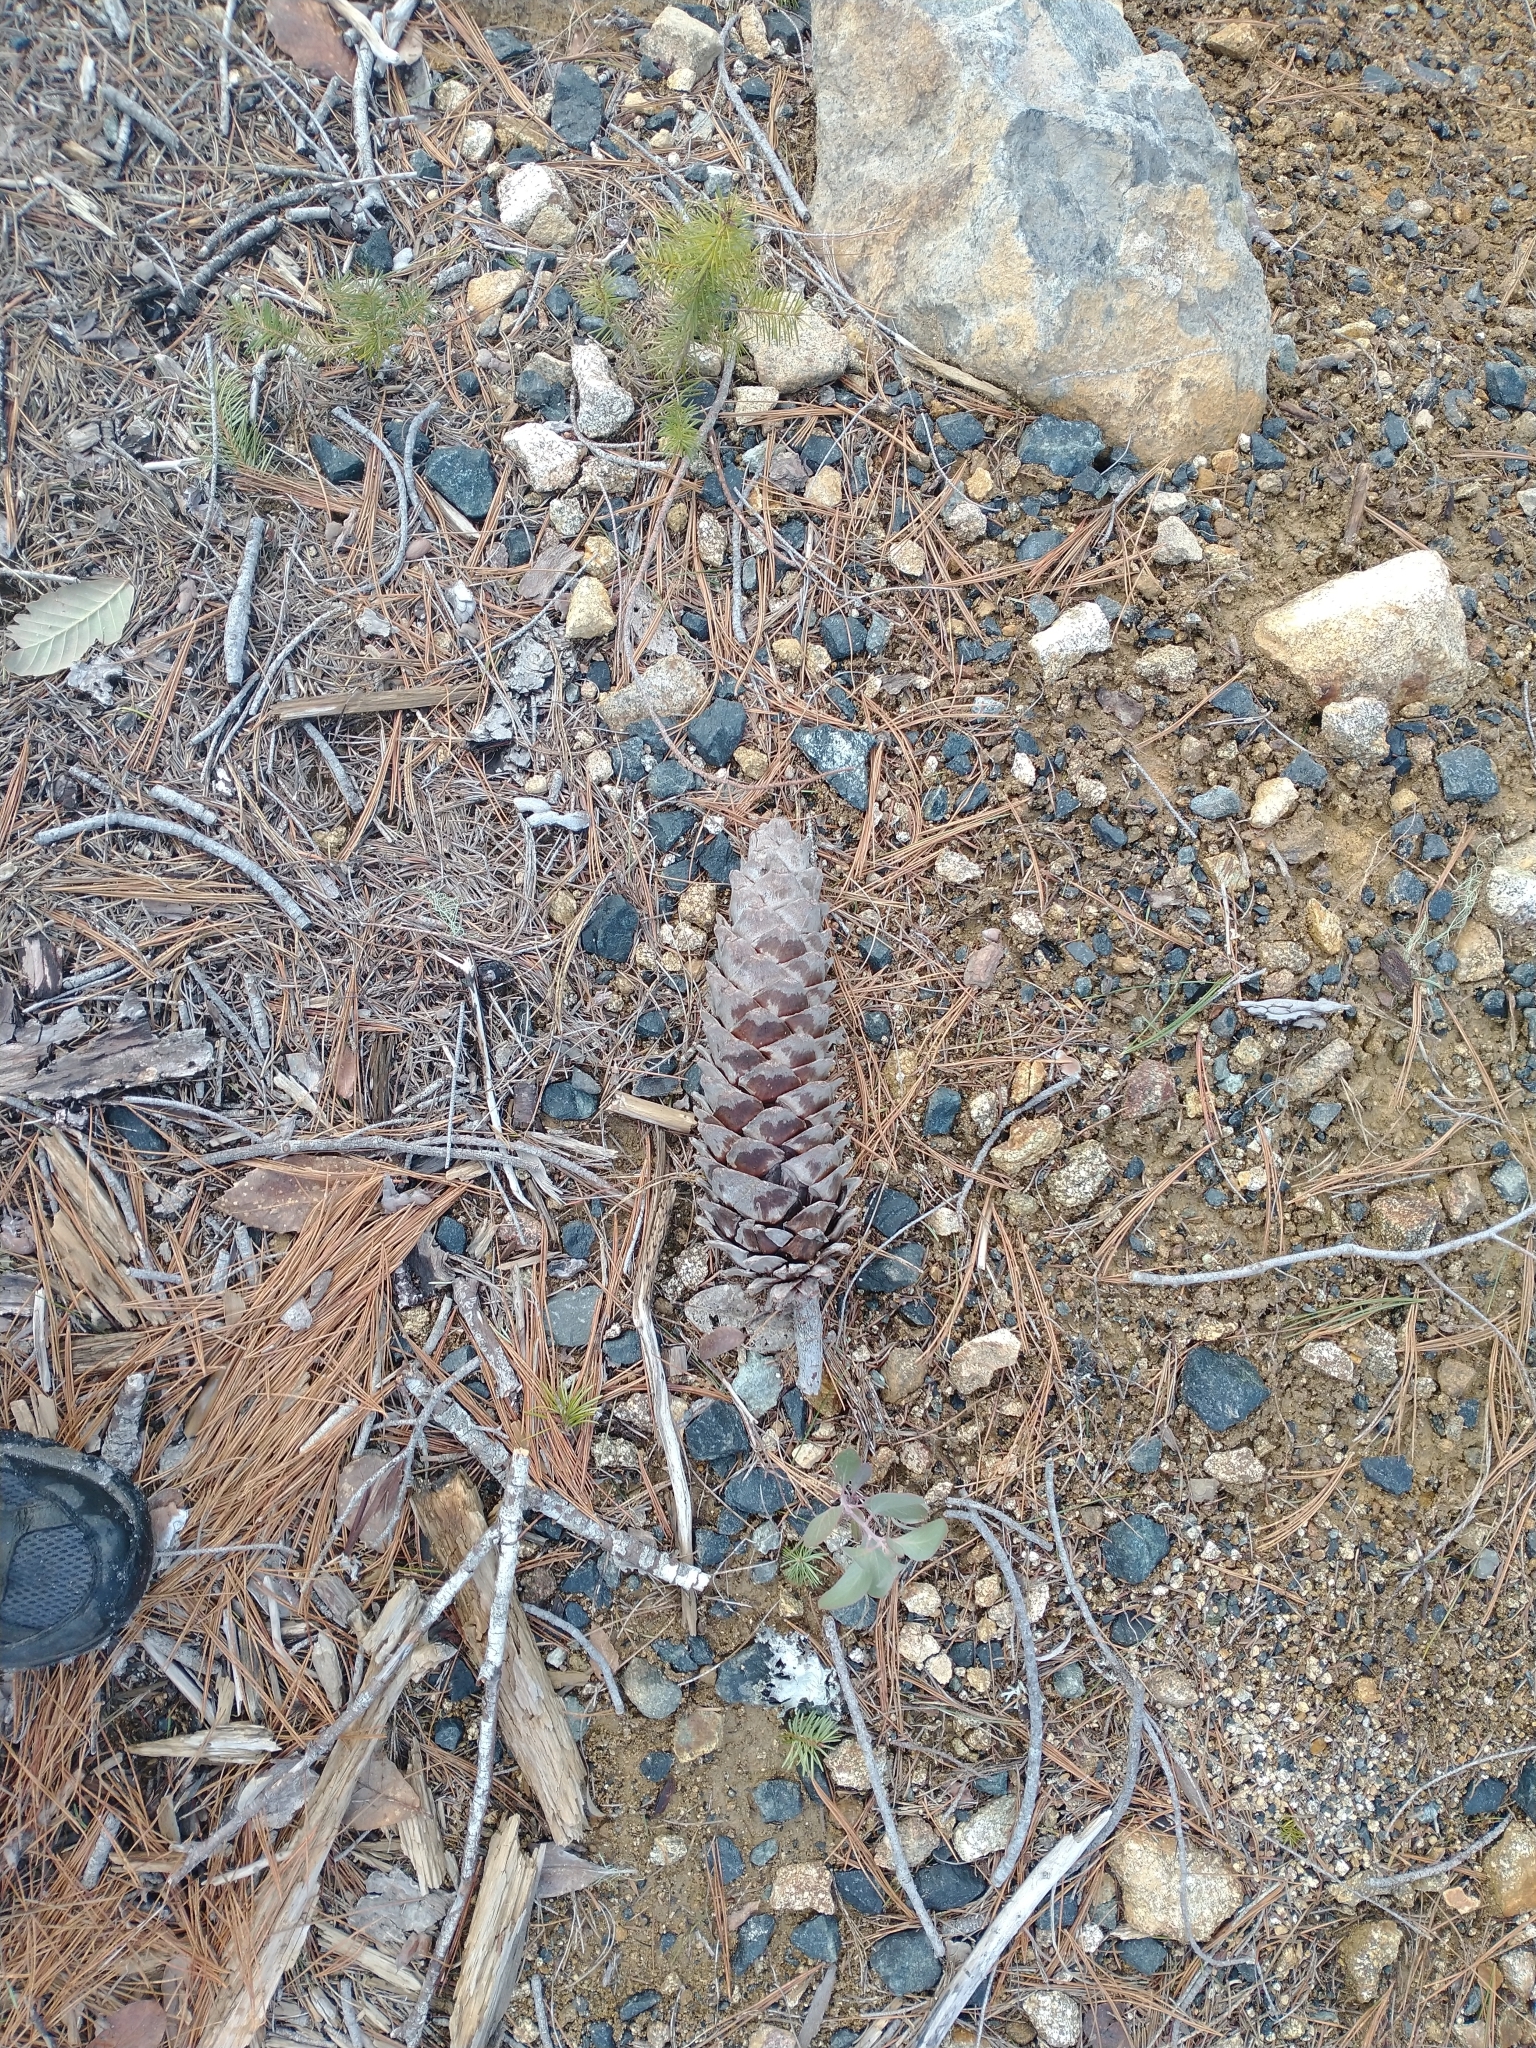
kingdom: Plantae
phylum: Tracheophyta
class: Pinopsida
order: Pinales
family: Pinaceae
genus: Pinus
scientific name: Pinus lambertiana
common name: Sugar pine
